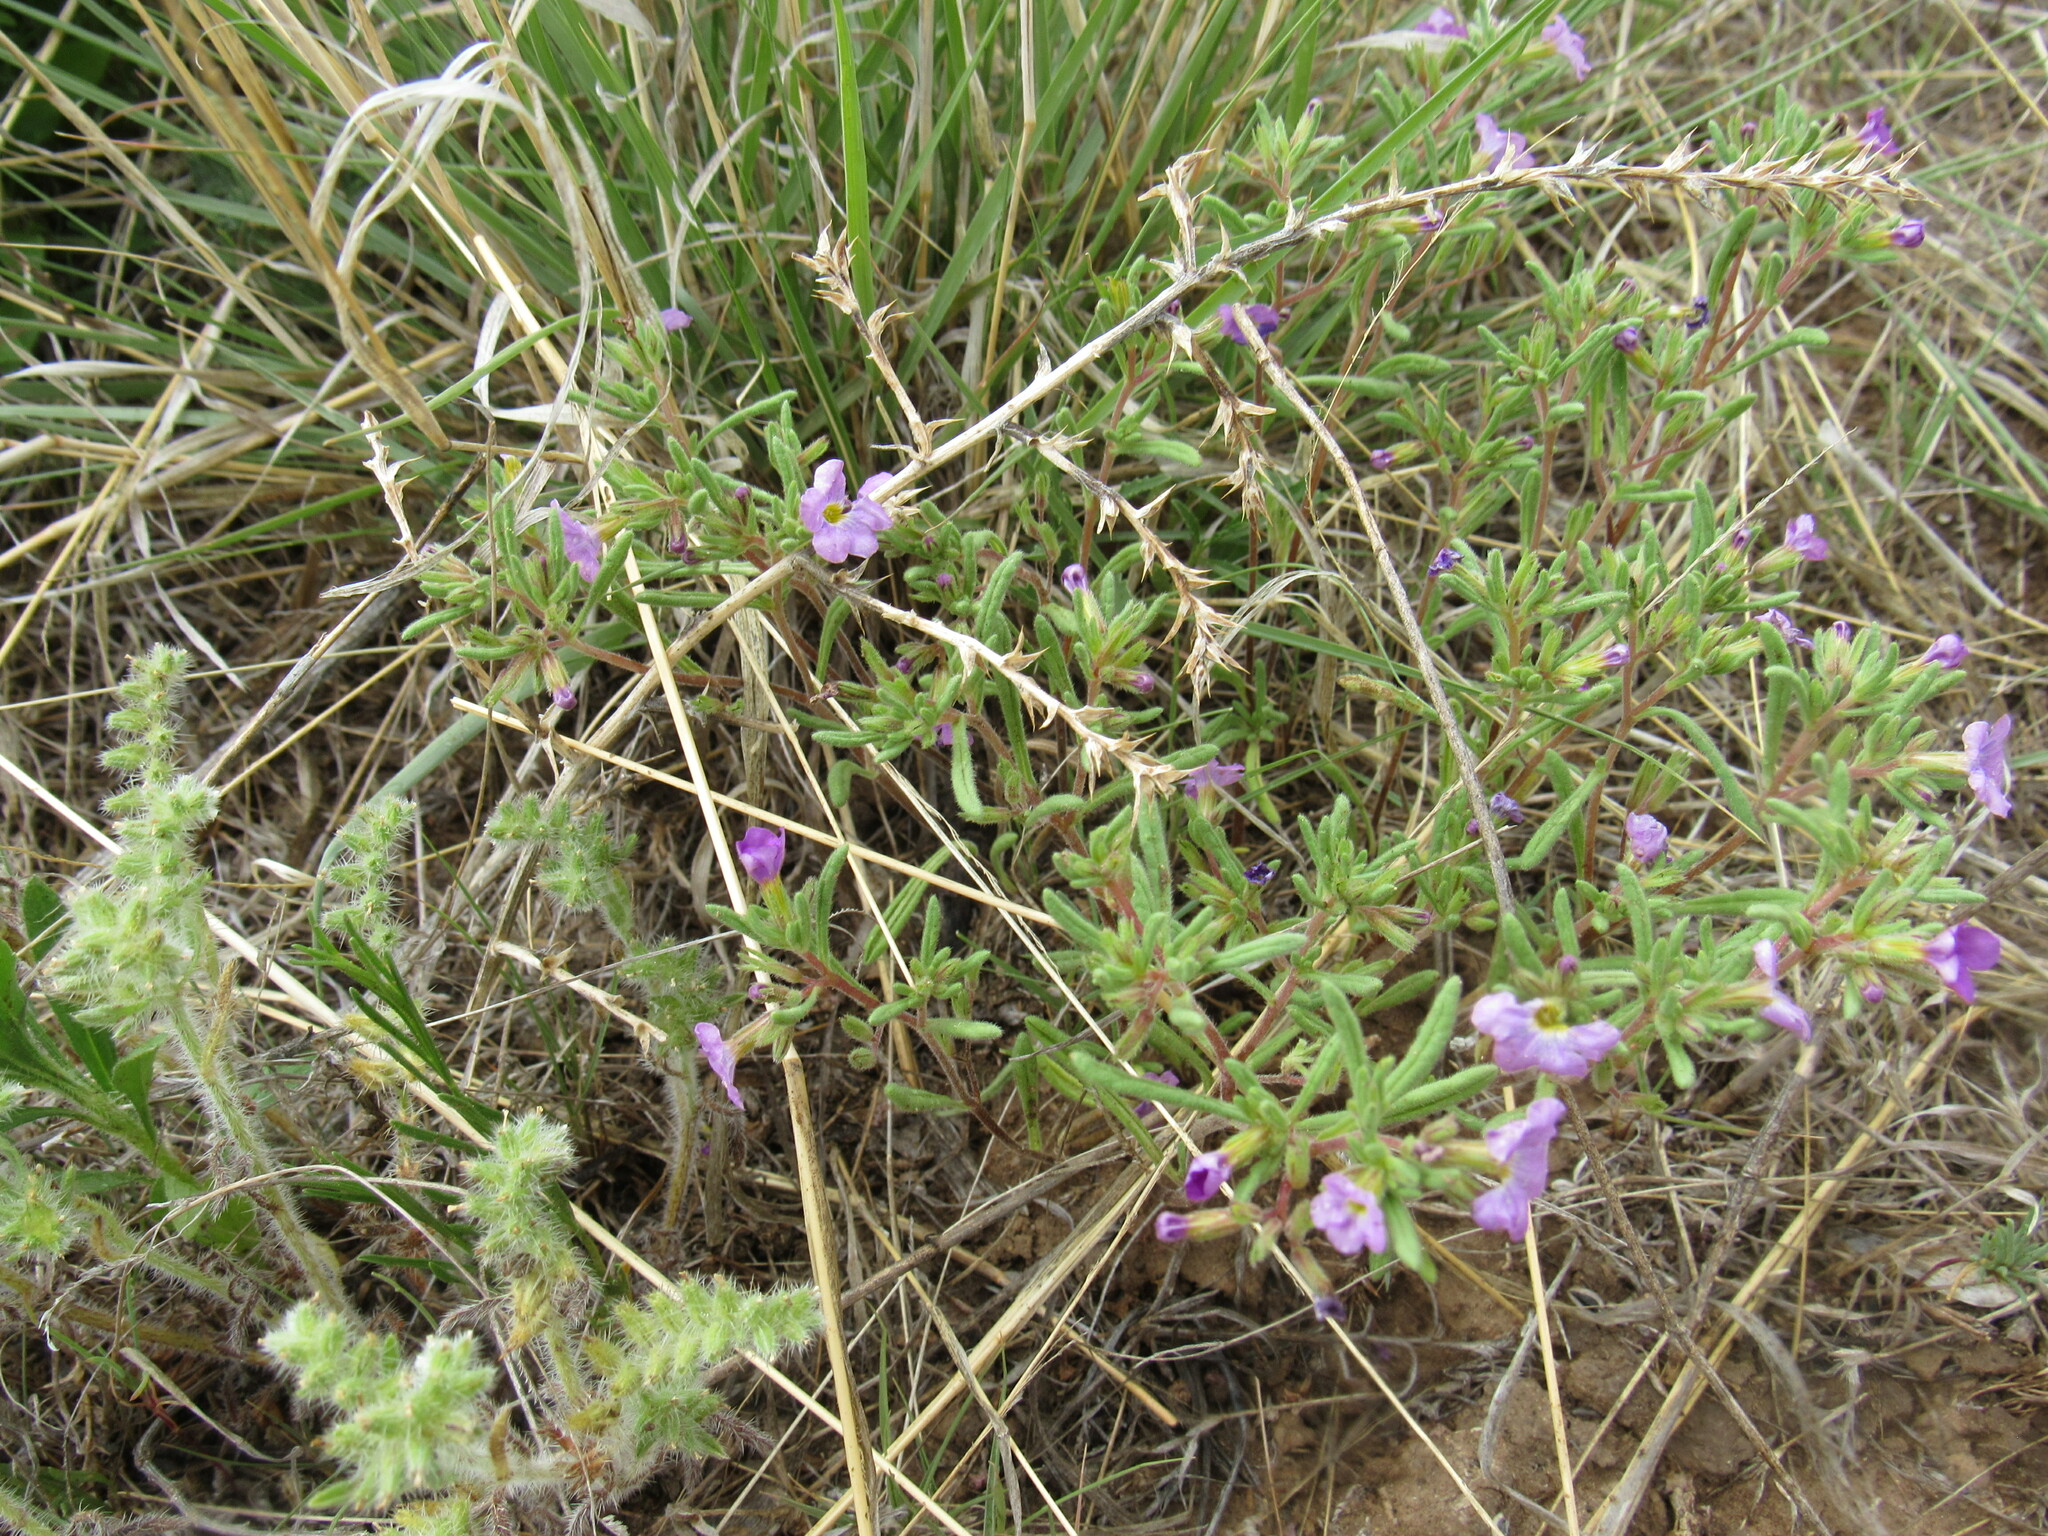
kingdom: Plantae
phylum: Tracheophyta
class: Magnoliopsida
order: Boraginales
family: Namaceae
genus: Nama
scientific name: Nama hispida
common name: Bristly nama
